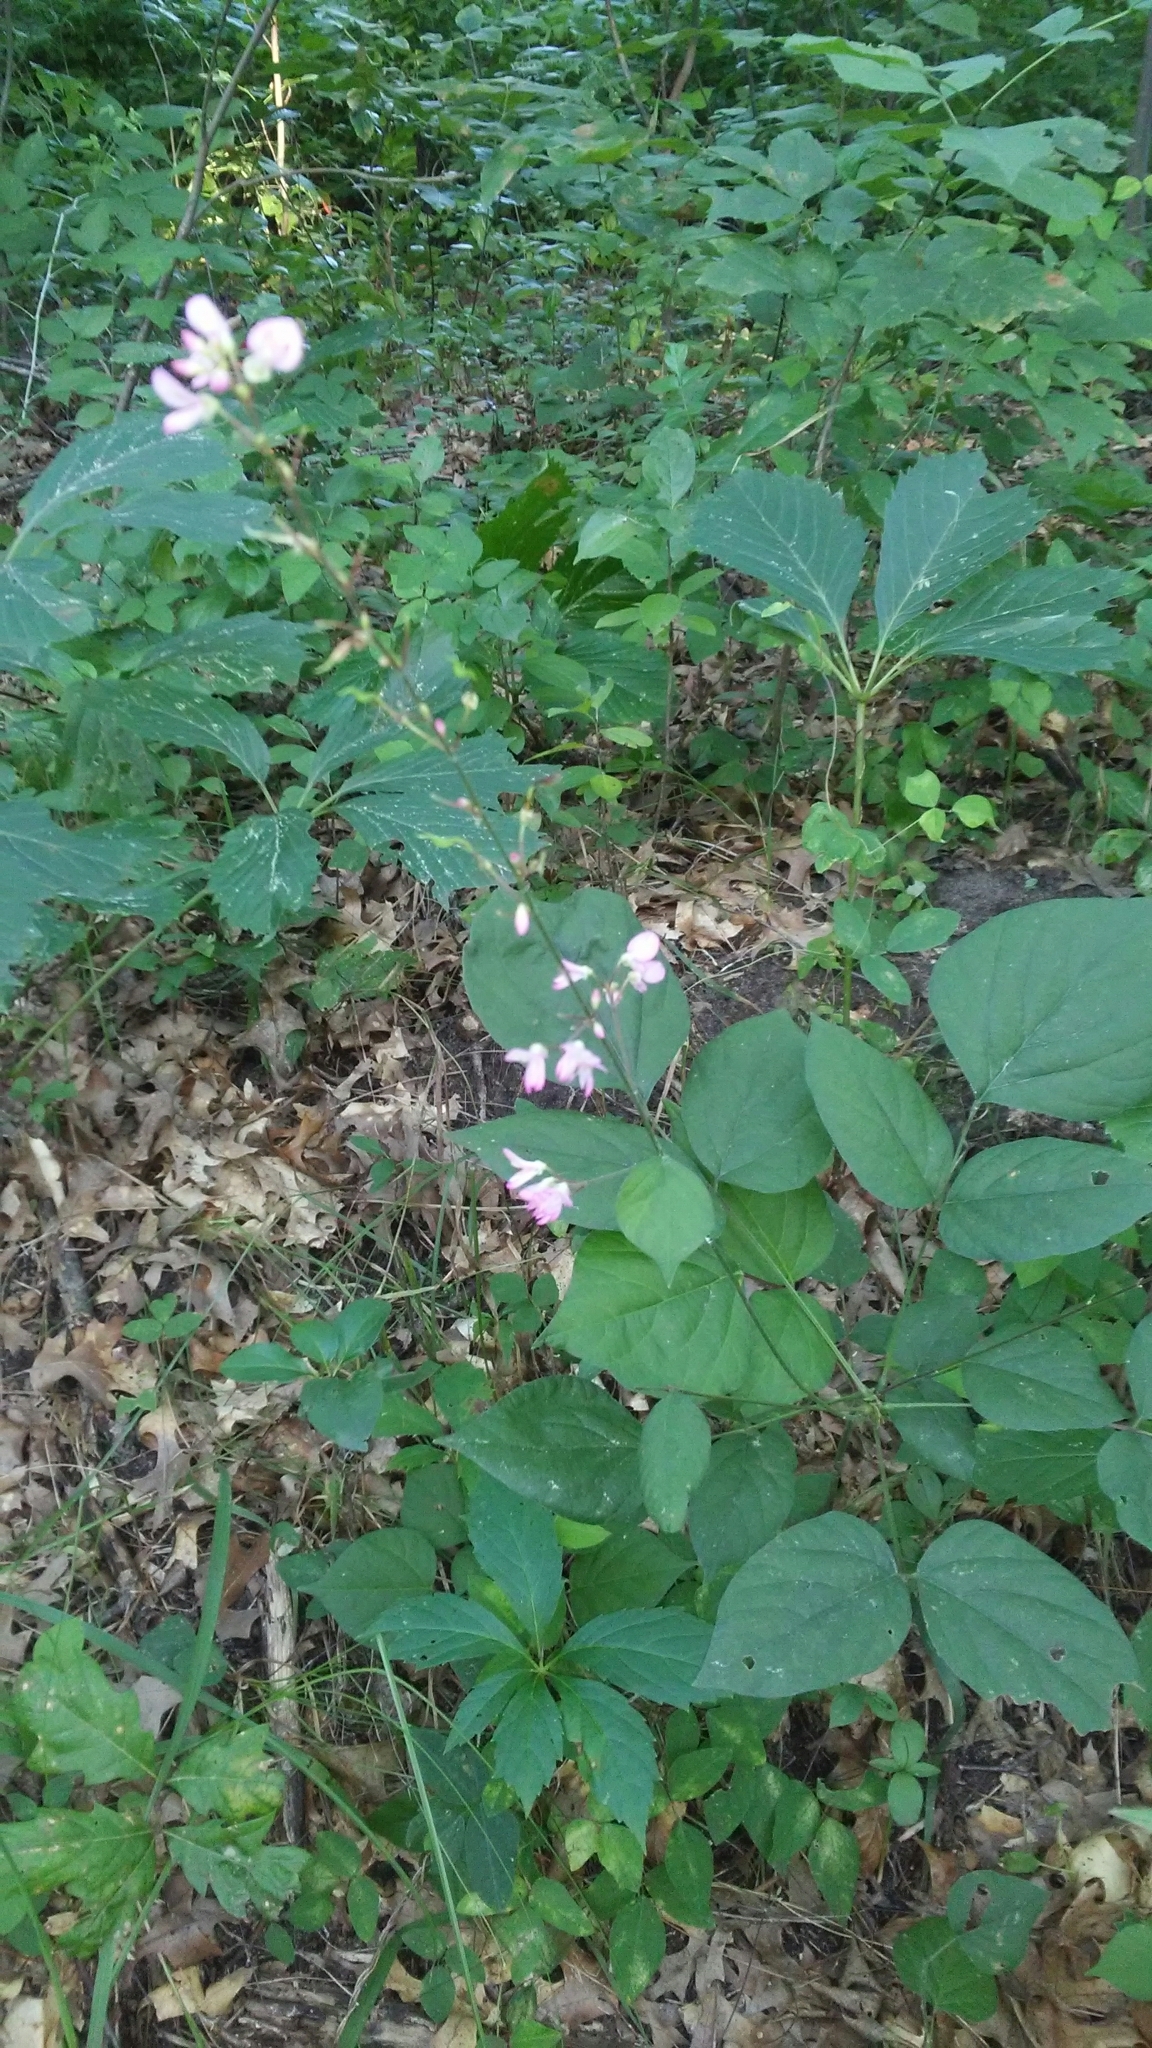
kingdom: Plantae
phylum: Tracheophyta
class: Magnoliopsida
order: Fabales
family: Fabaceae
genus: Hylodesmum
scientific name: Hylodesmum glutinosum
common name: Clustered-leaved tick-trefoil
